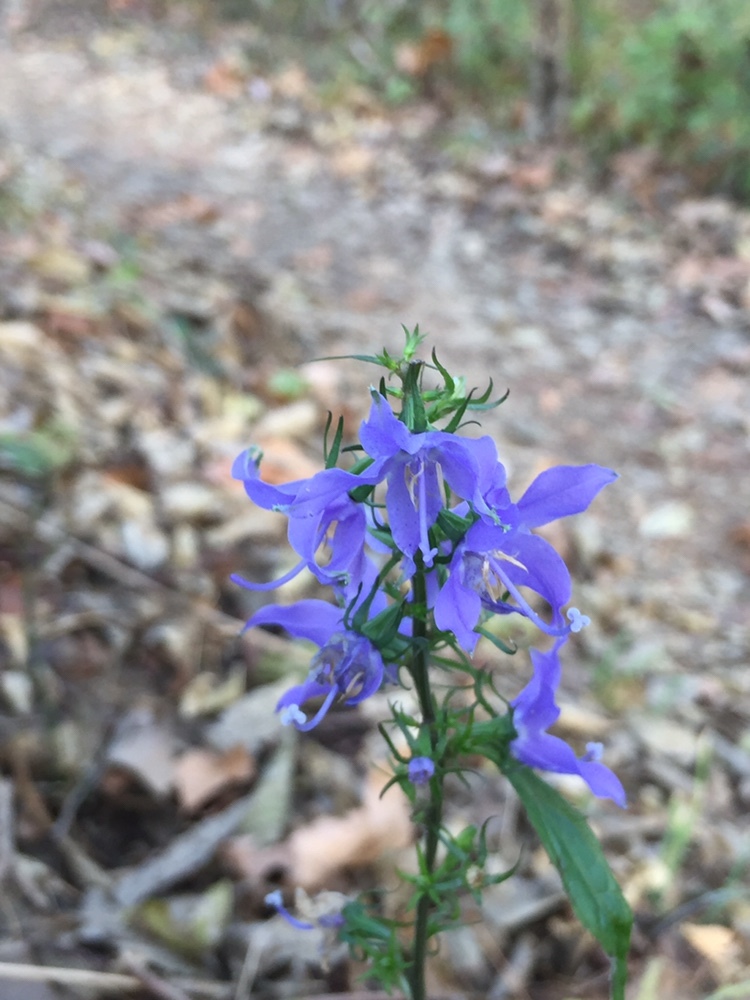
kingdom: Plantae
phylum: Tracheophyta
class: Magnoliopsida
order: Asterales
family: Campanulaceae
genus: Campanulastrum
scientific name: Campanulastrum americanum
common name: American bellflower
